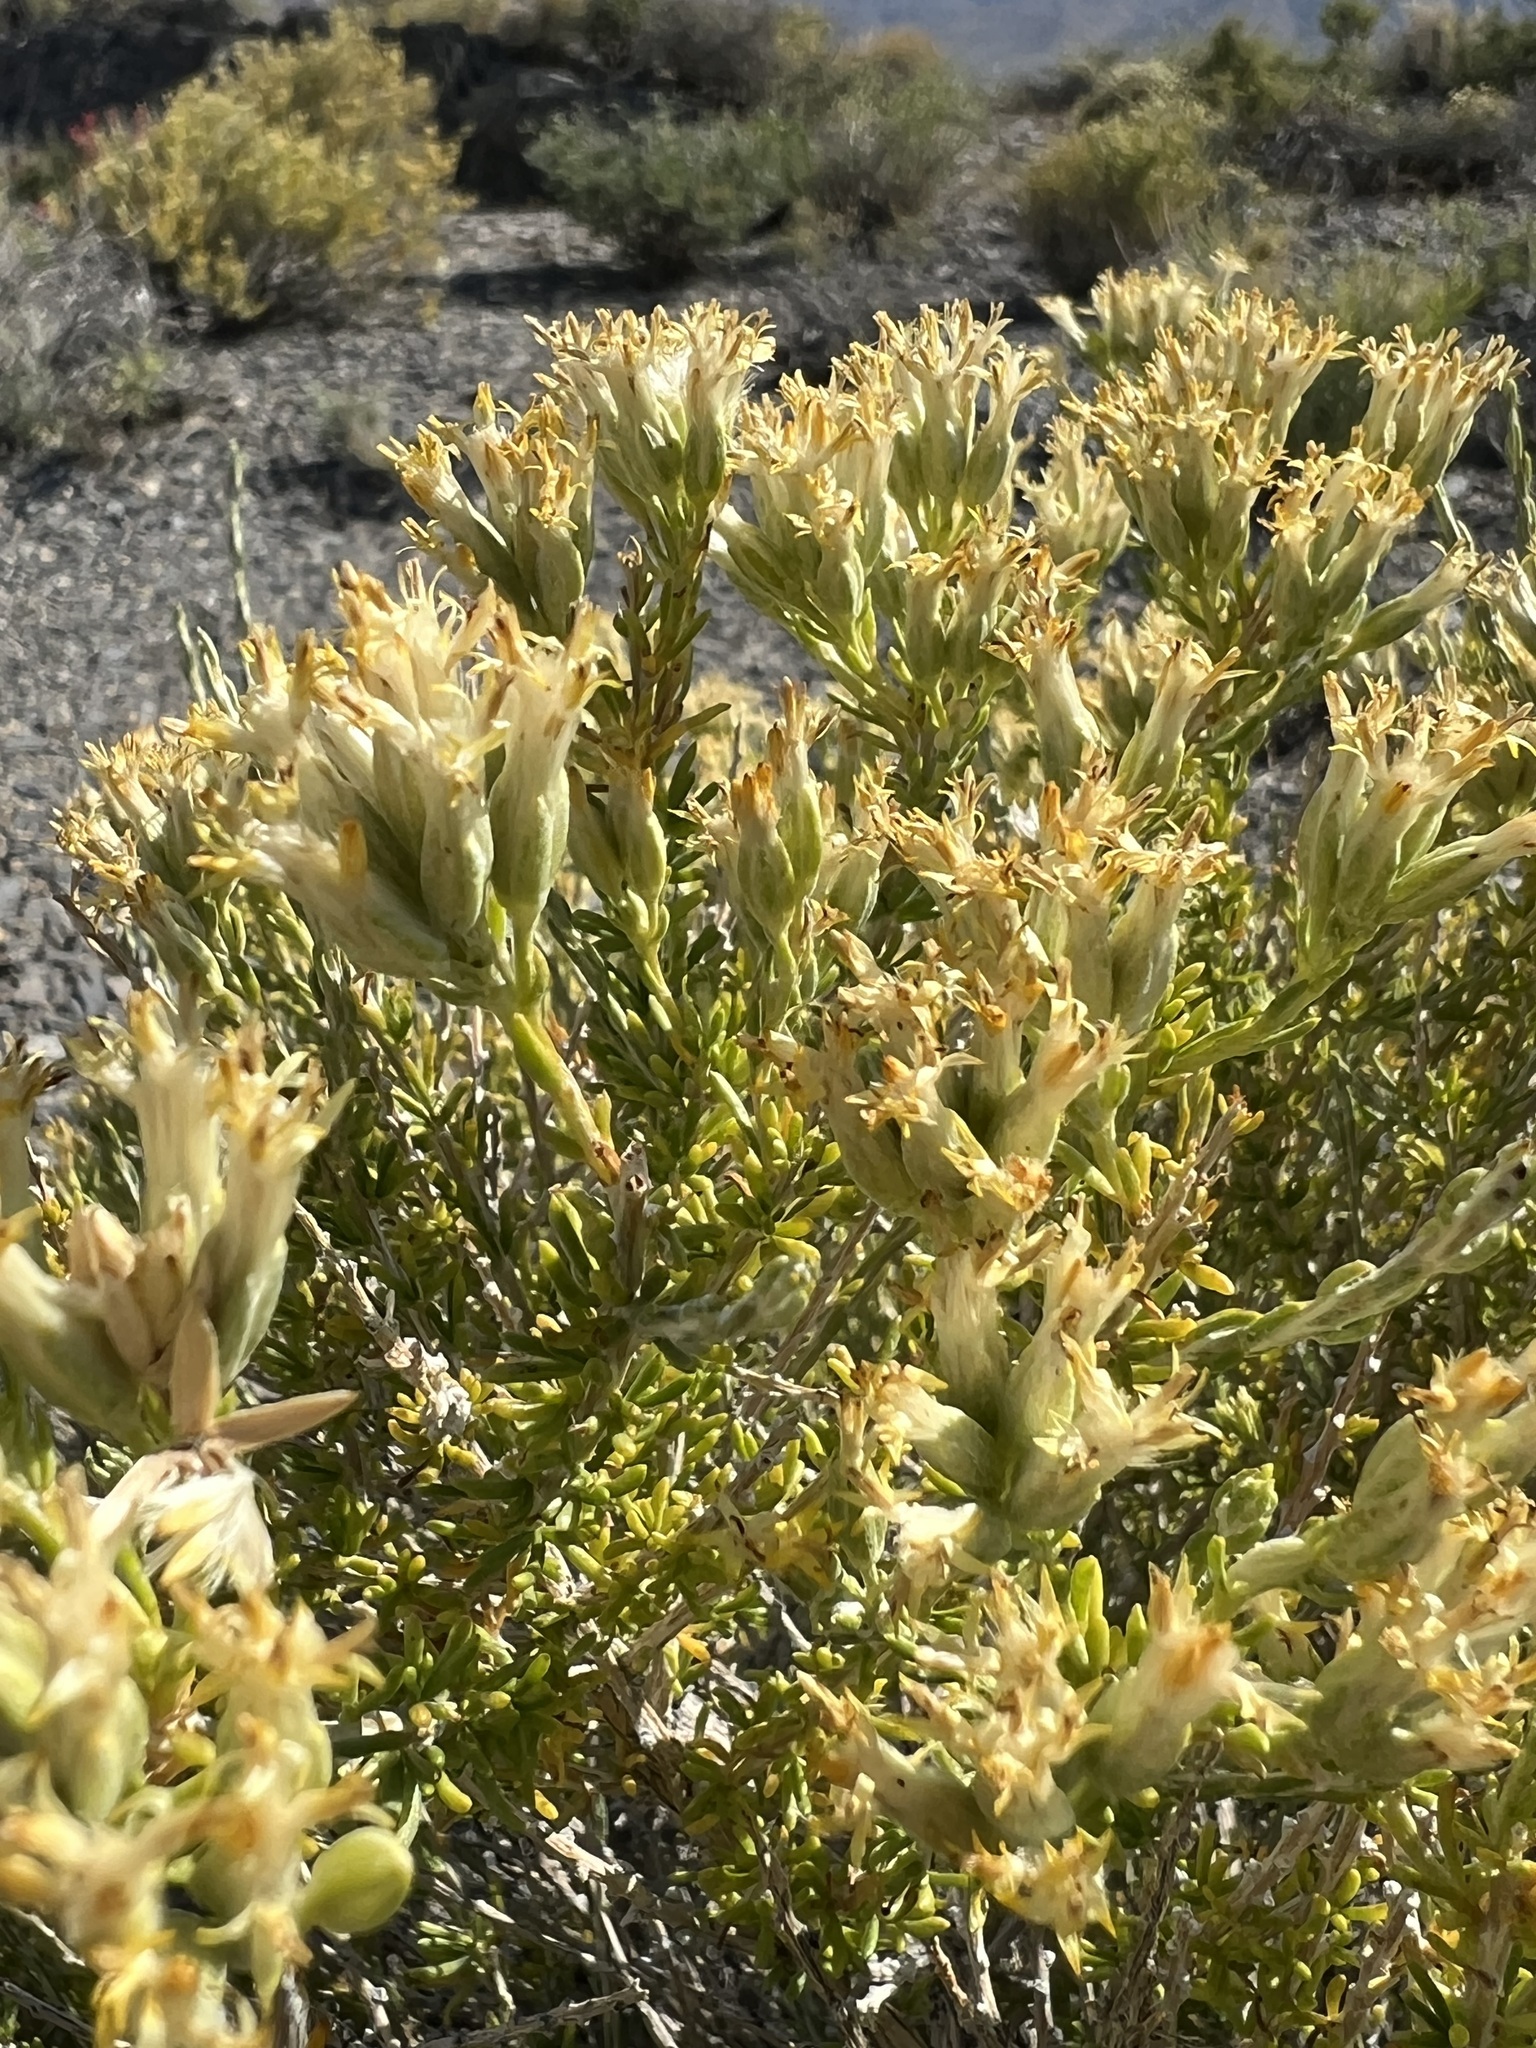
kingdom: Plantae
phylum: Tracheophyta
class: Magnoliopsida
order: Asterales
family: Asteraceae
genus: Tetradymia
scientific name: Tetradymia glabrata
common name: Smooth tetradymia
